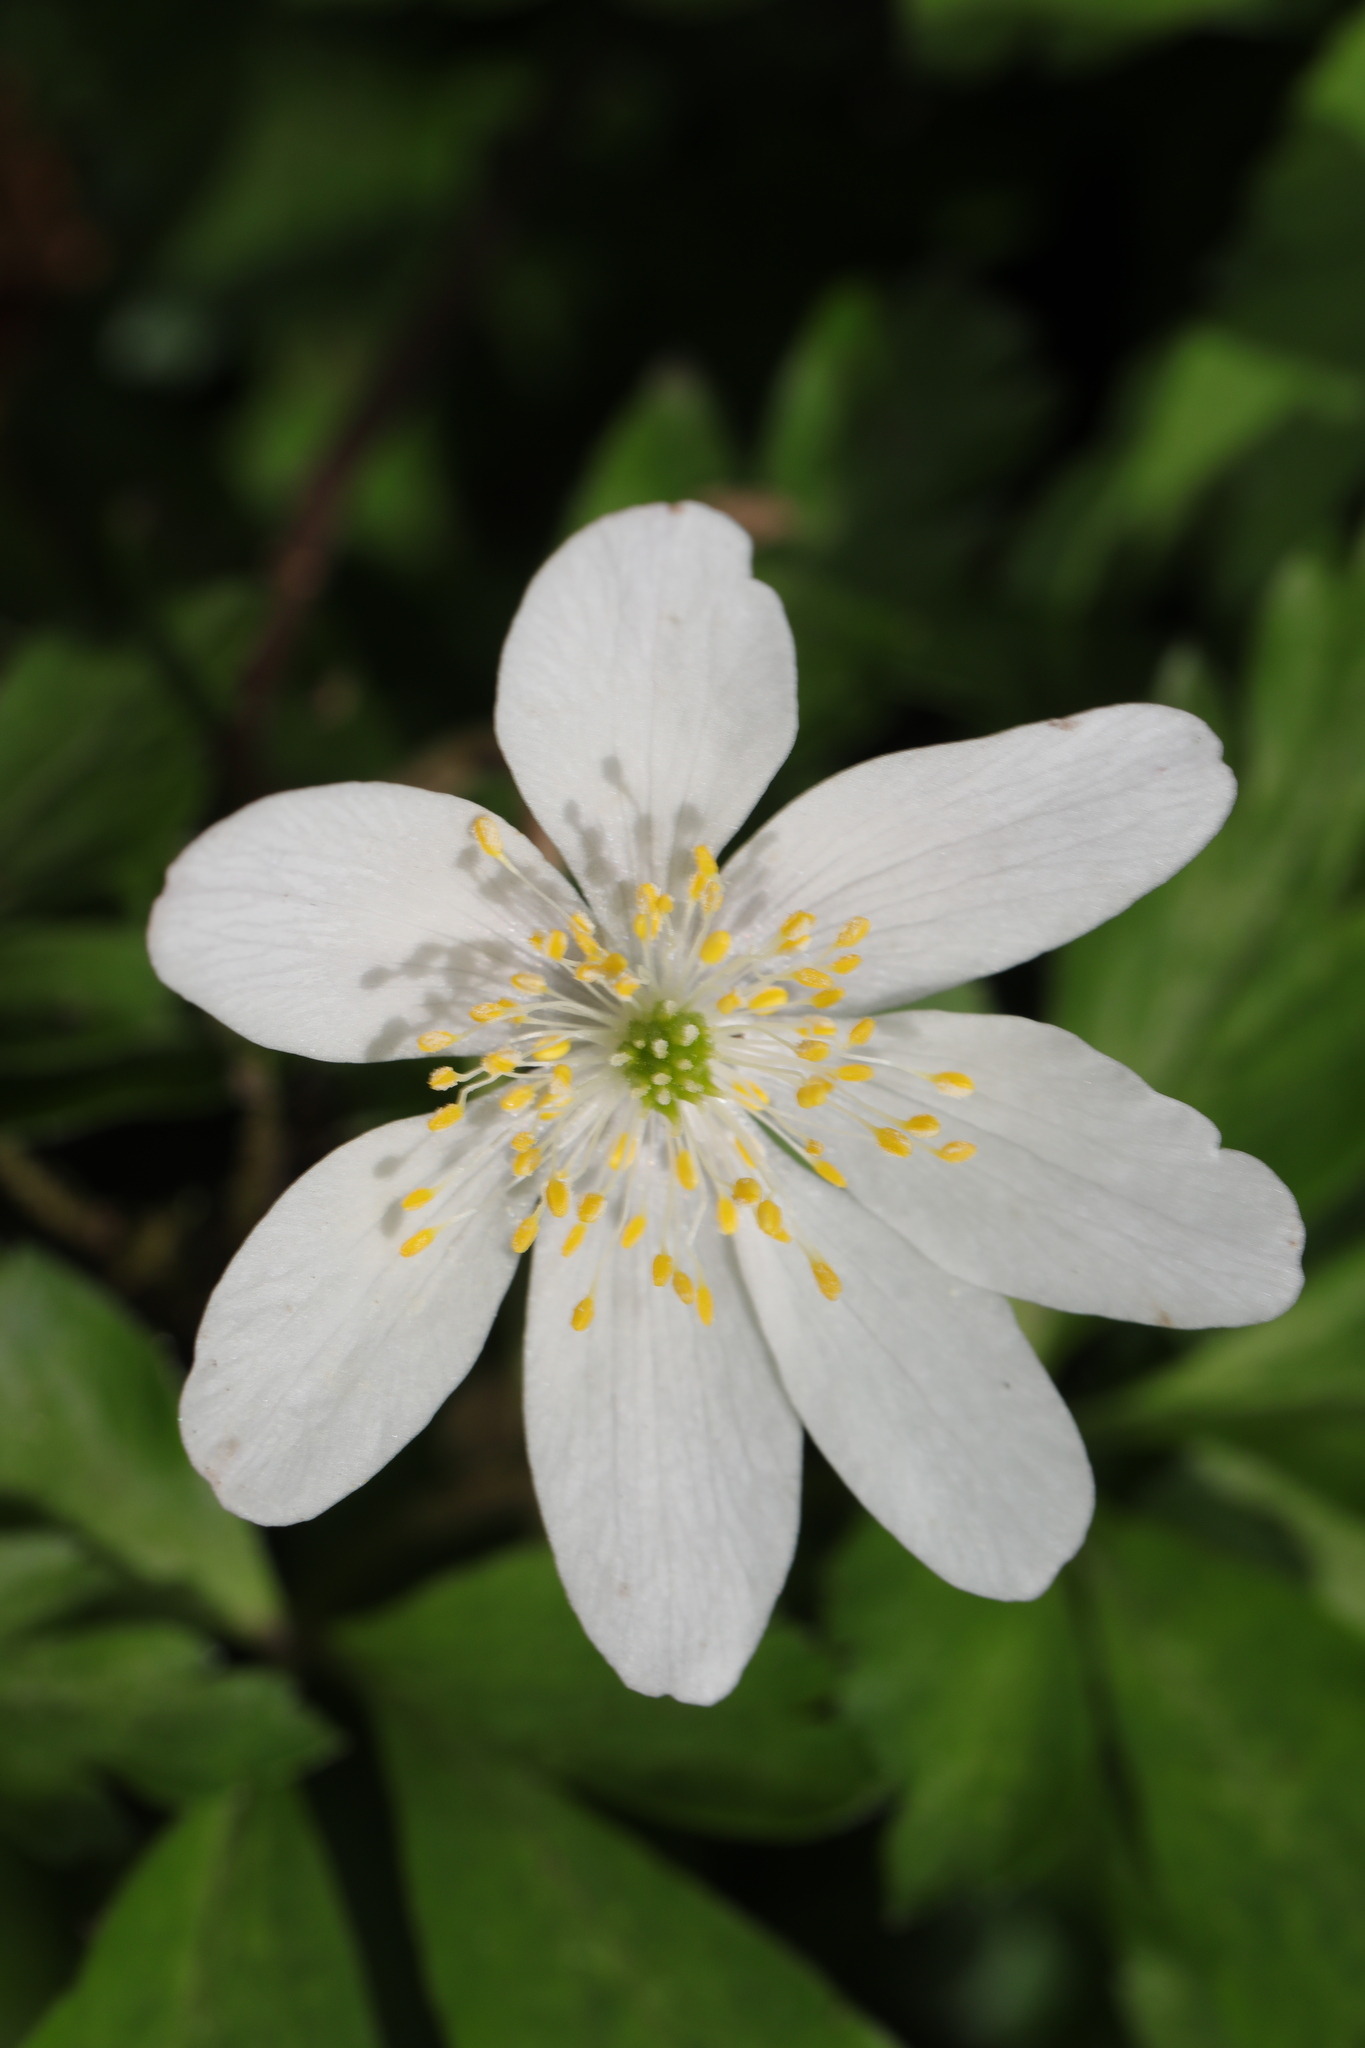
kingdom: Plantae
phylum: Tracheophyta
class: Magnoliopsida
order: Ranunculales
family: Ranunculaceae
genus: Anemone
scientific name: Anemone nemorosa
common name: Wood anemone
